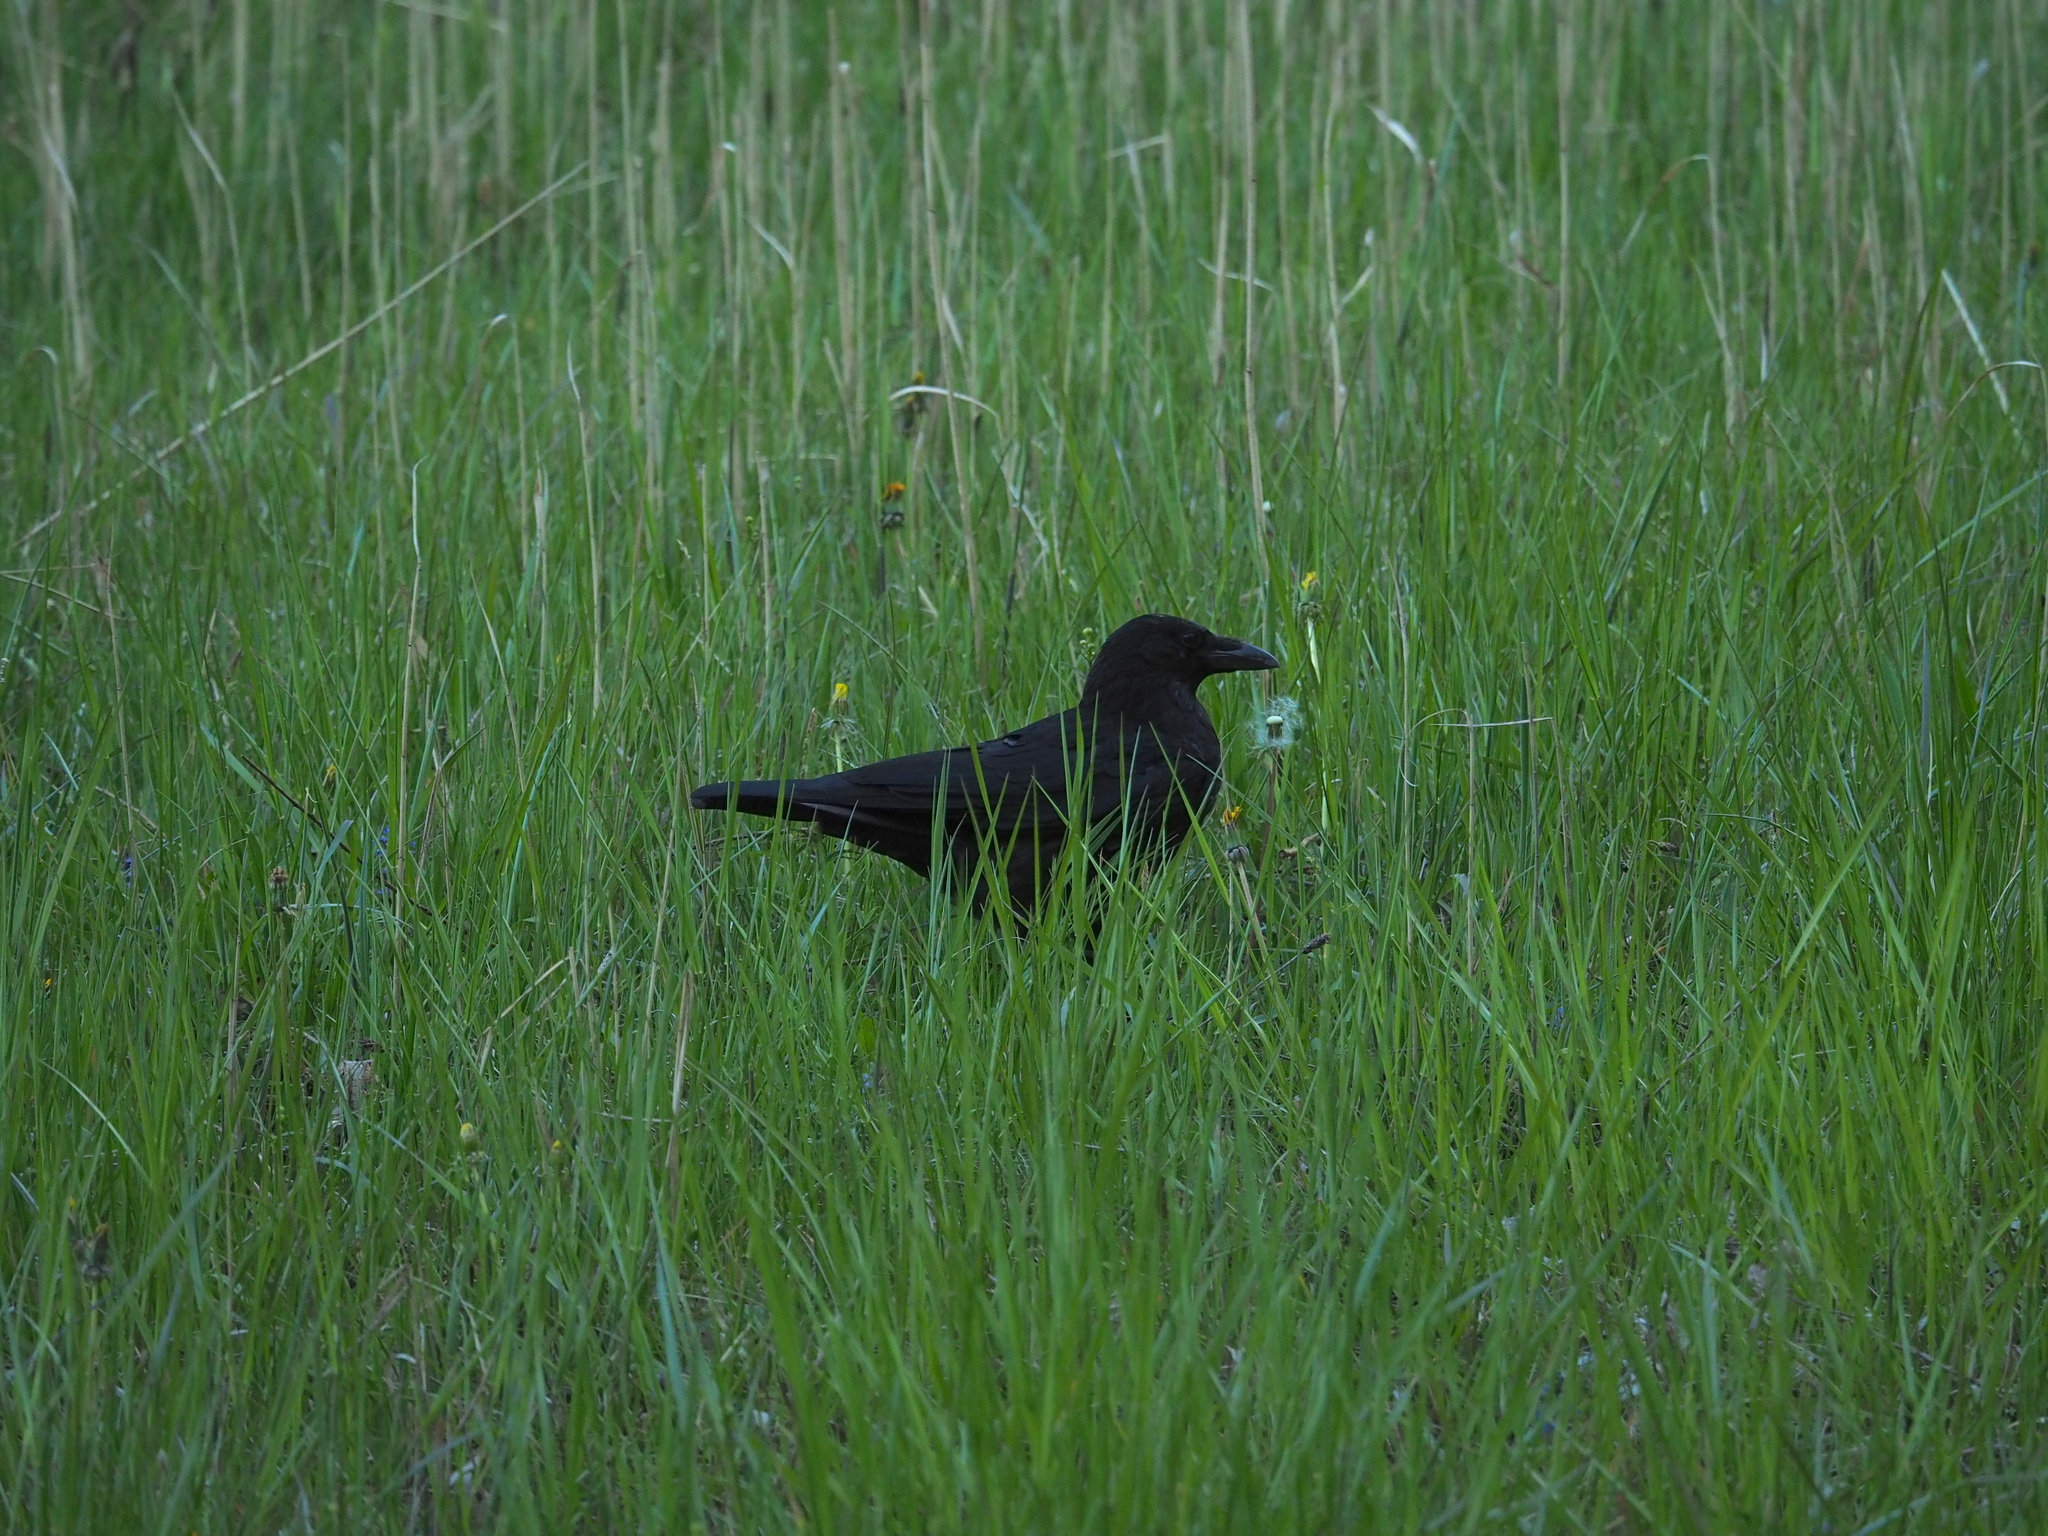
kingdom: Animalia
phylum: Chordata
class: Aves
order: Passeriformes
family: Corvidae
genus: Corvus
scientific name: Corvus corone
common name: Carrion crow
